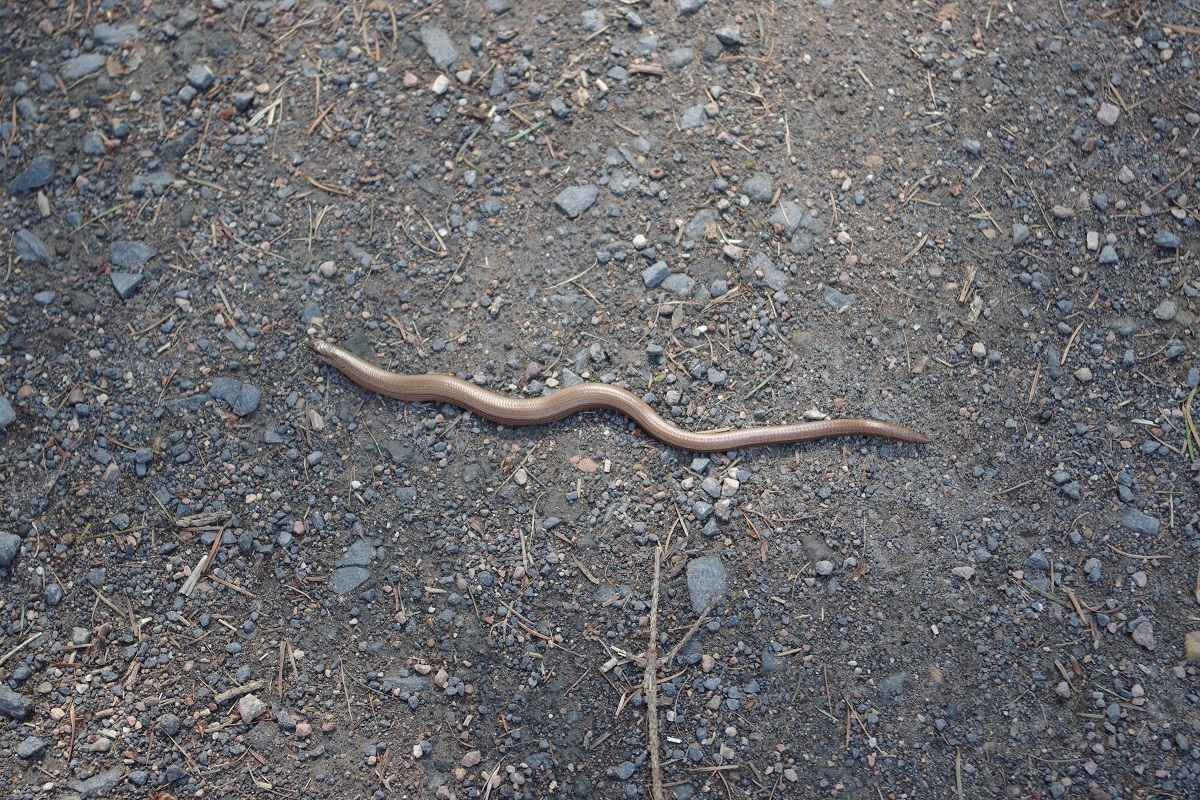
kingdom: Animalia
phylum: Chordata
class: Squamata
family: Anguidae
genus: Anguis
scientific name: Anguis fragilis
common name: Slow worm
